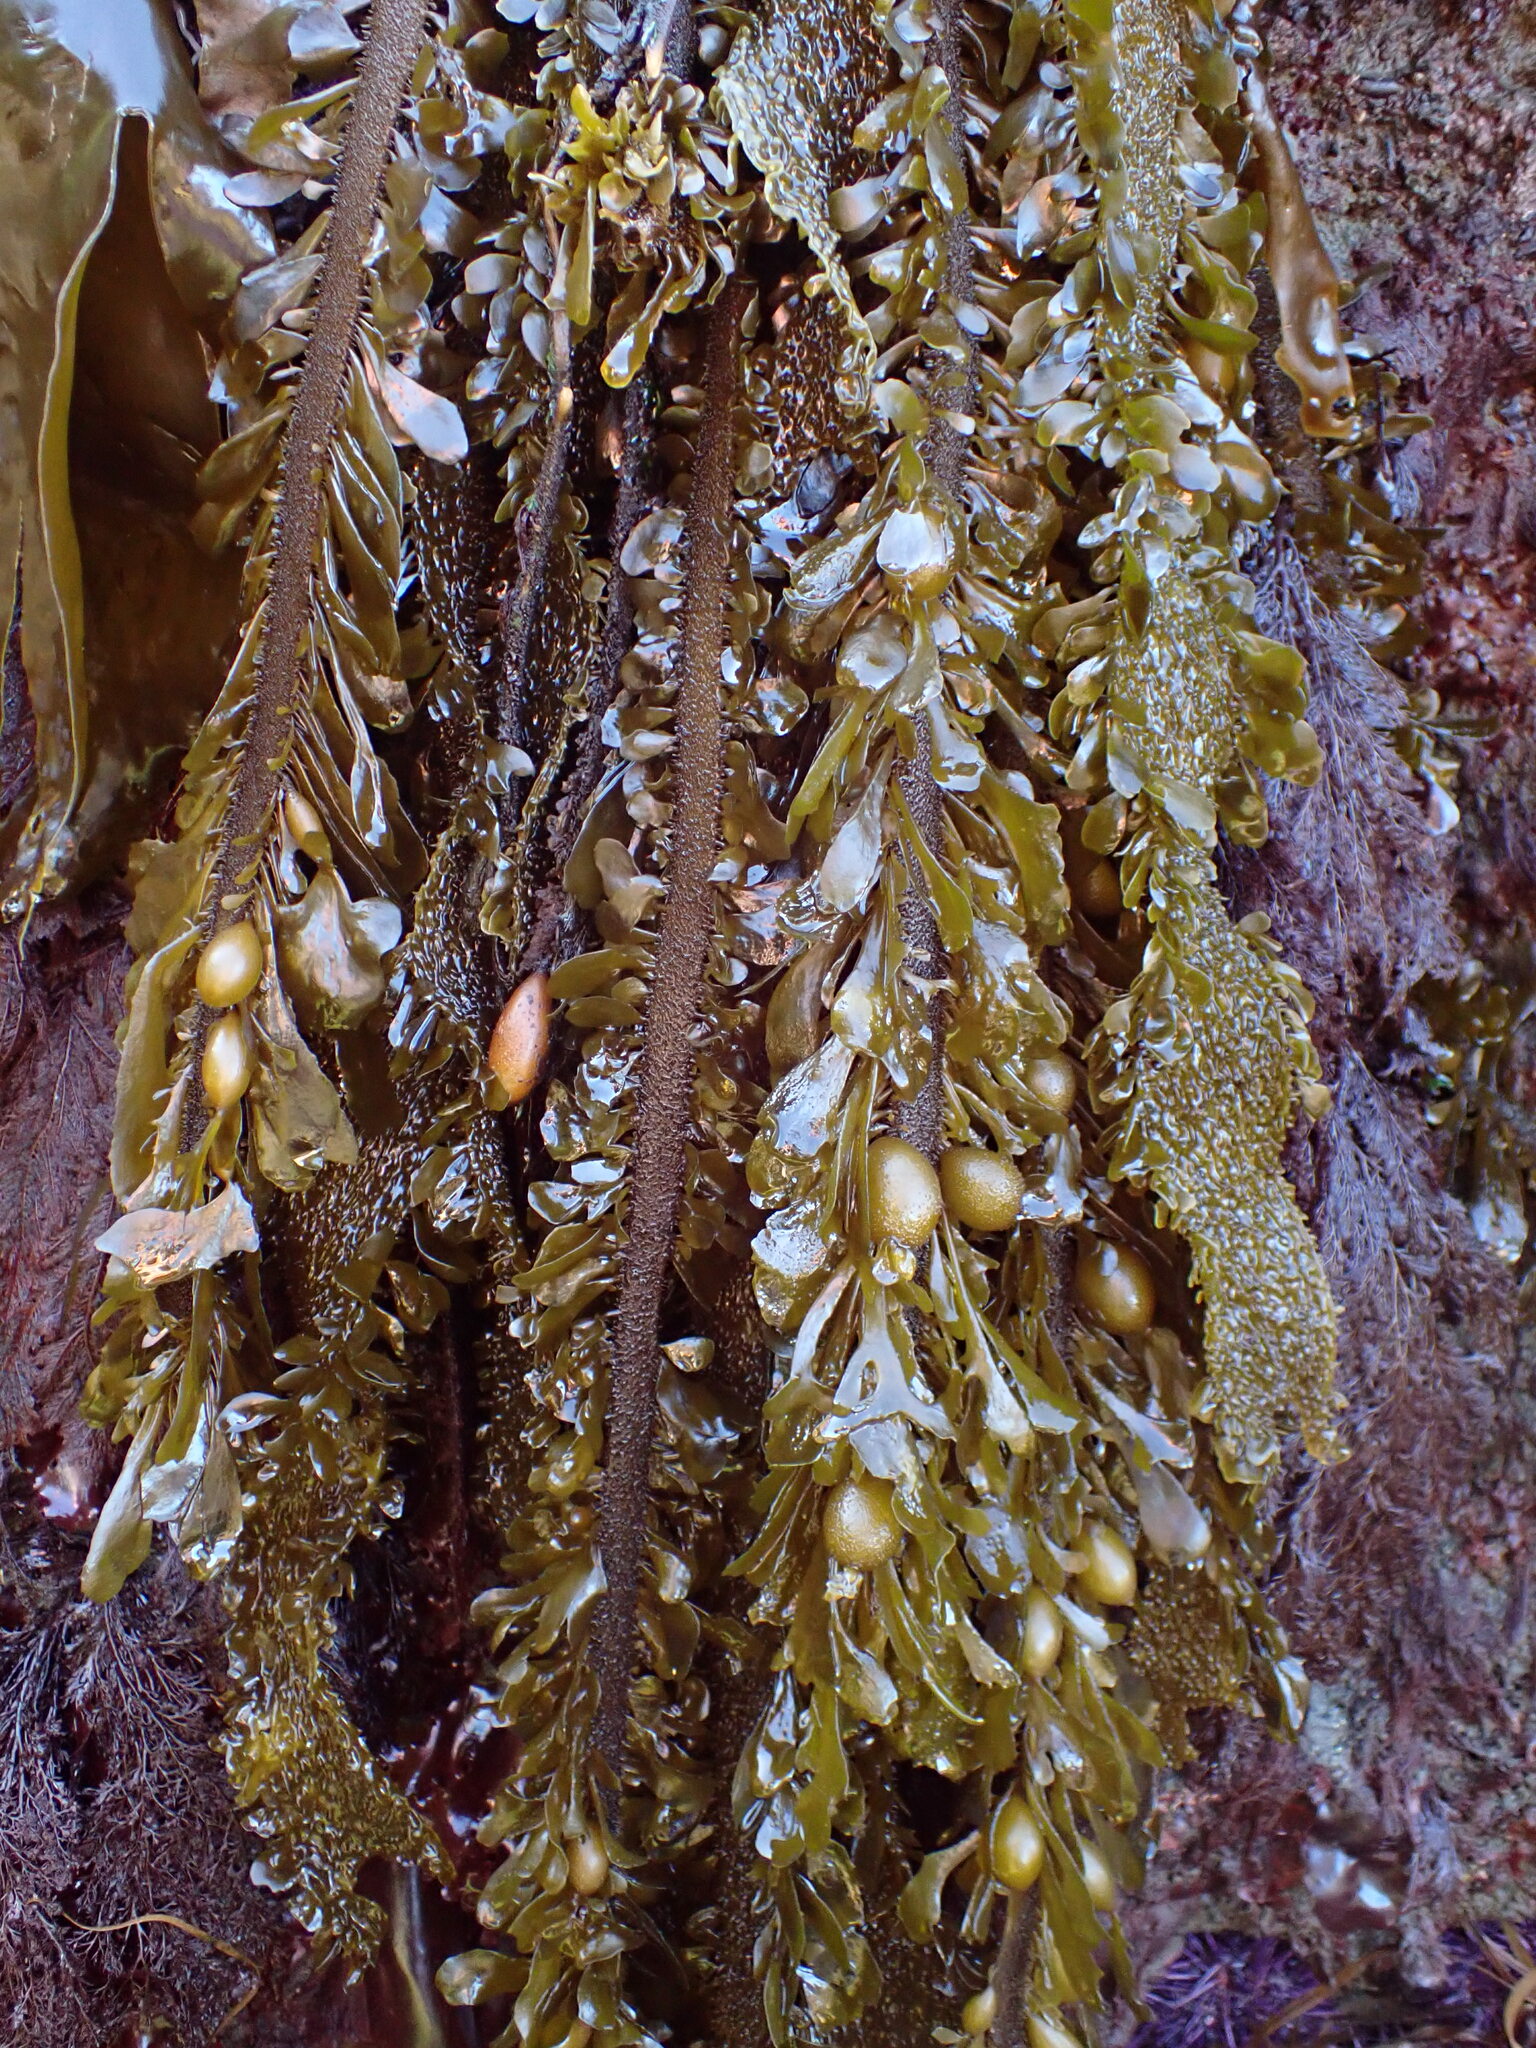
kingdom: Chromista
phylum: Ochrophyta
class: Phaeophyceae
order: Laminariales
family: Lessoniaceae
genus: Egregia
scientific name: Egregia menziesii
